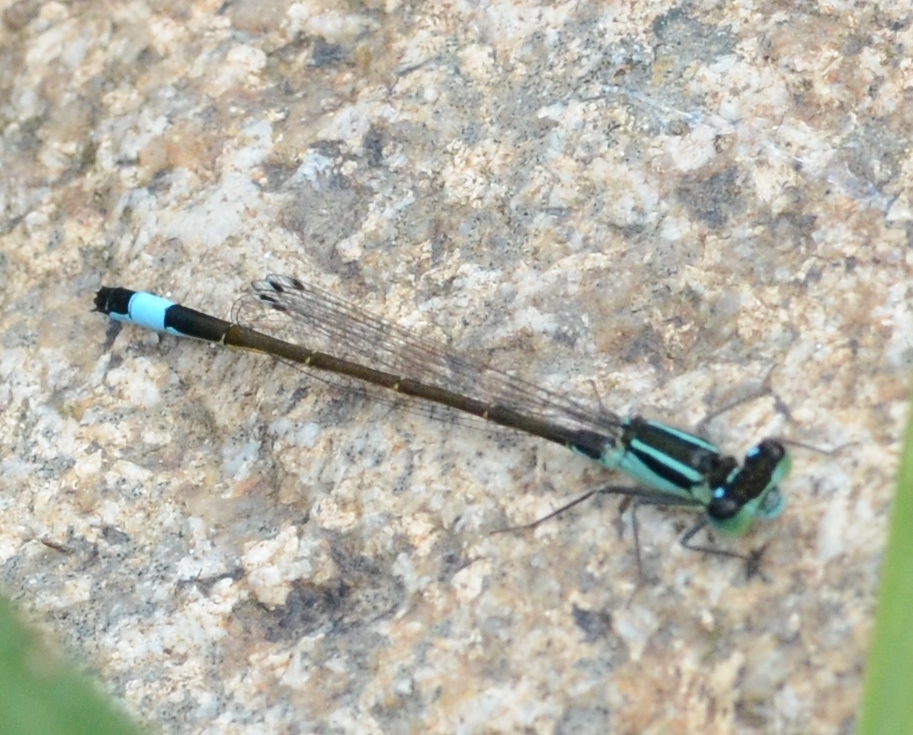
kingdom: Animalia
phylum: Arthropoda
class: Insecta
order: Odonata
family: Coenagrionidae
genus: Ischnura
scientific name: Ischnura elegans
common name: Blue-tailed damselfly
